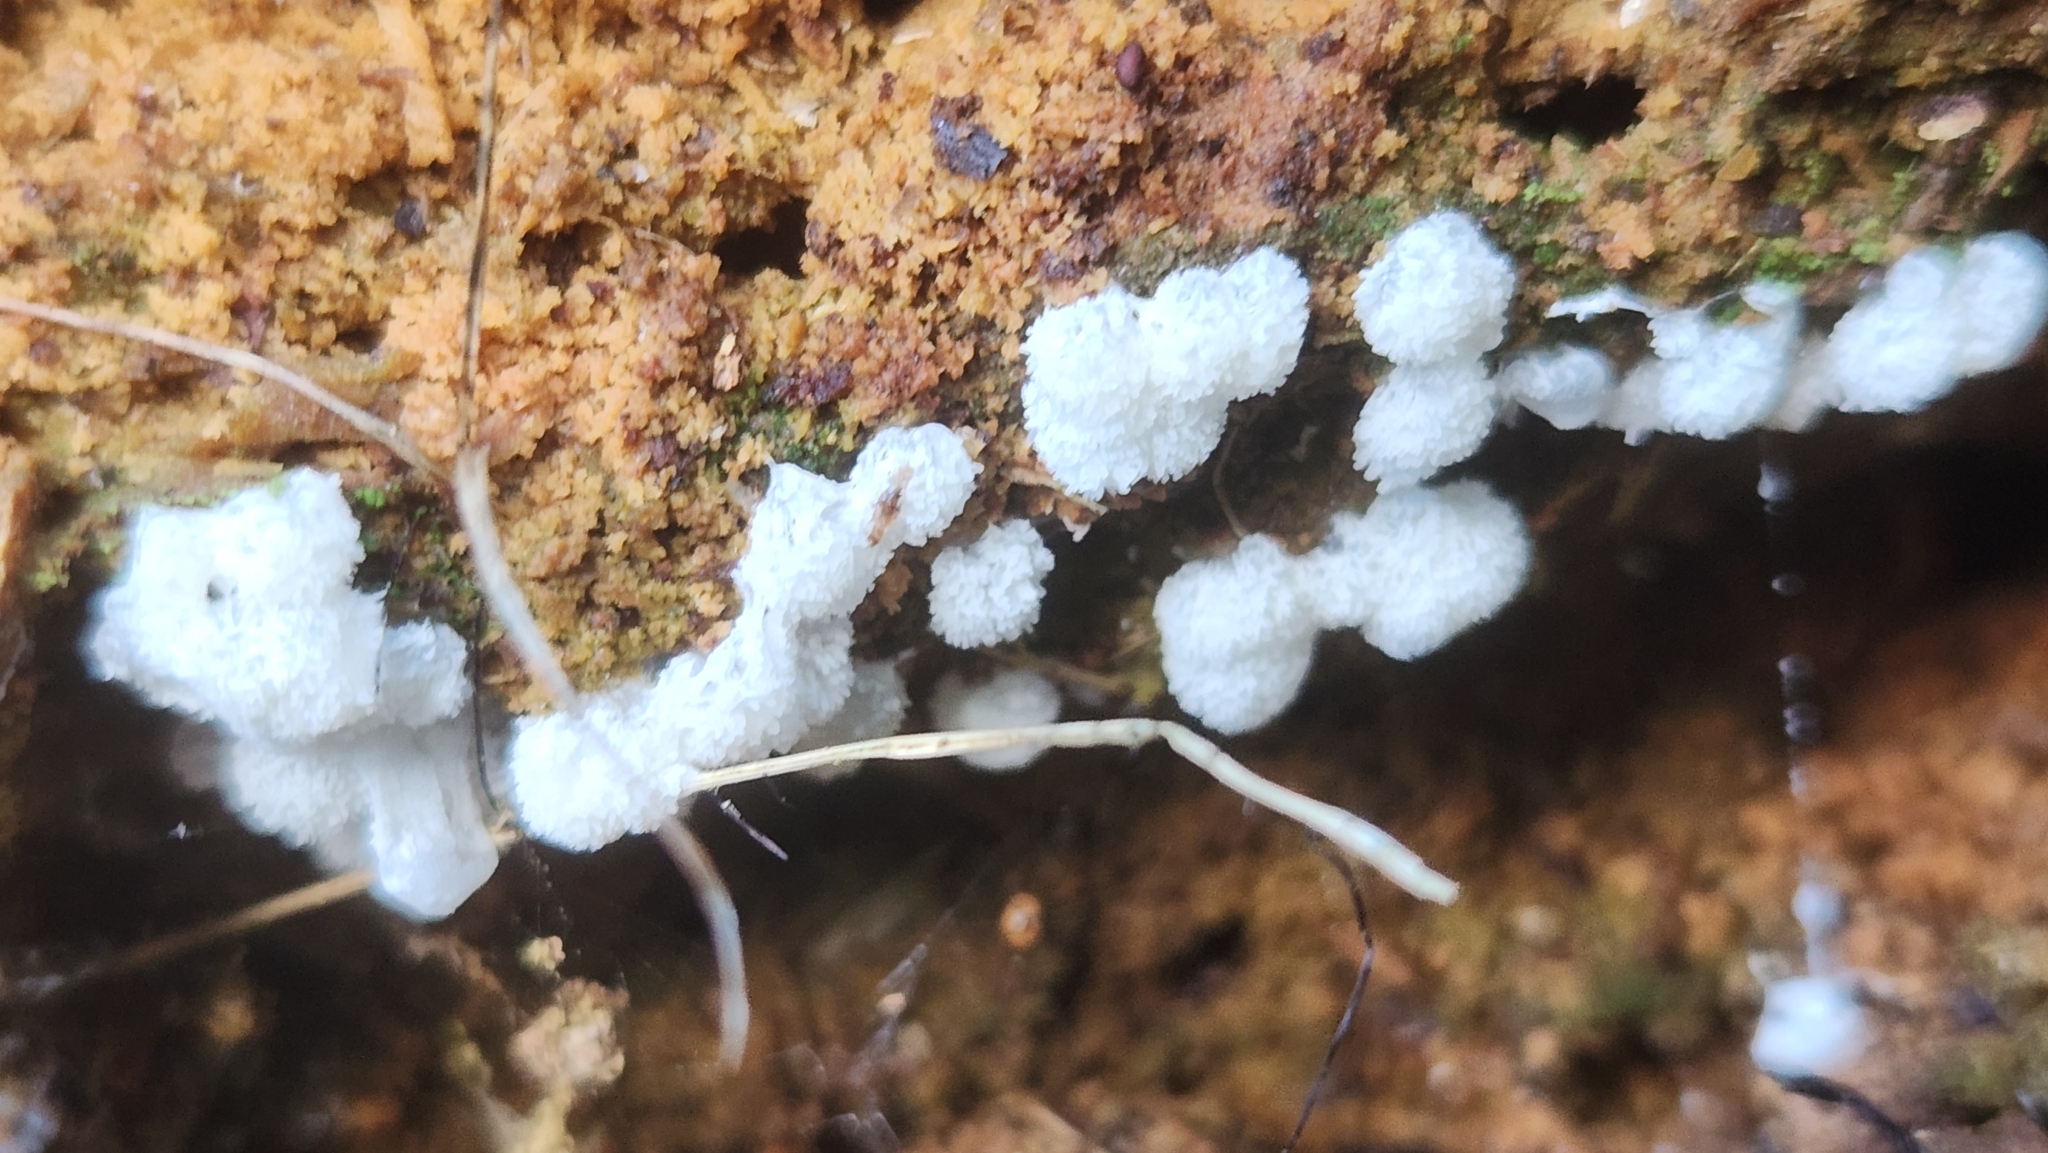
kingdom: Protozoa
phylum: Mycetozoa
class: Protosteliomycetes
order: Ceratiomyxales
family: Ceratiomyxaceae
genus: Ceratiomyxa
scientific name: Ceratiomyxa fruticulosa
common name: Honeycomb coral slime mold
